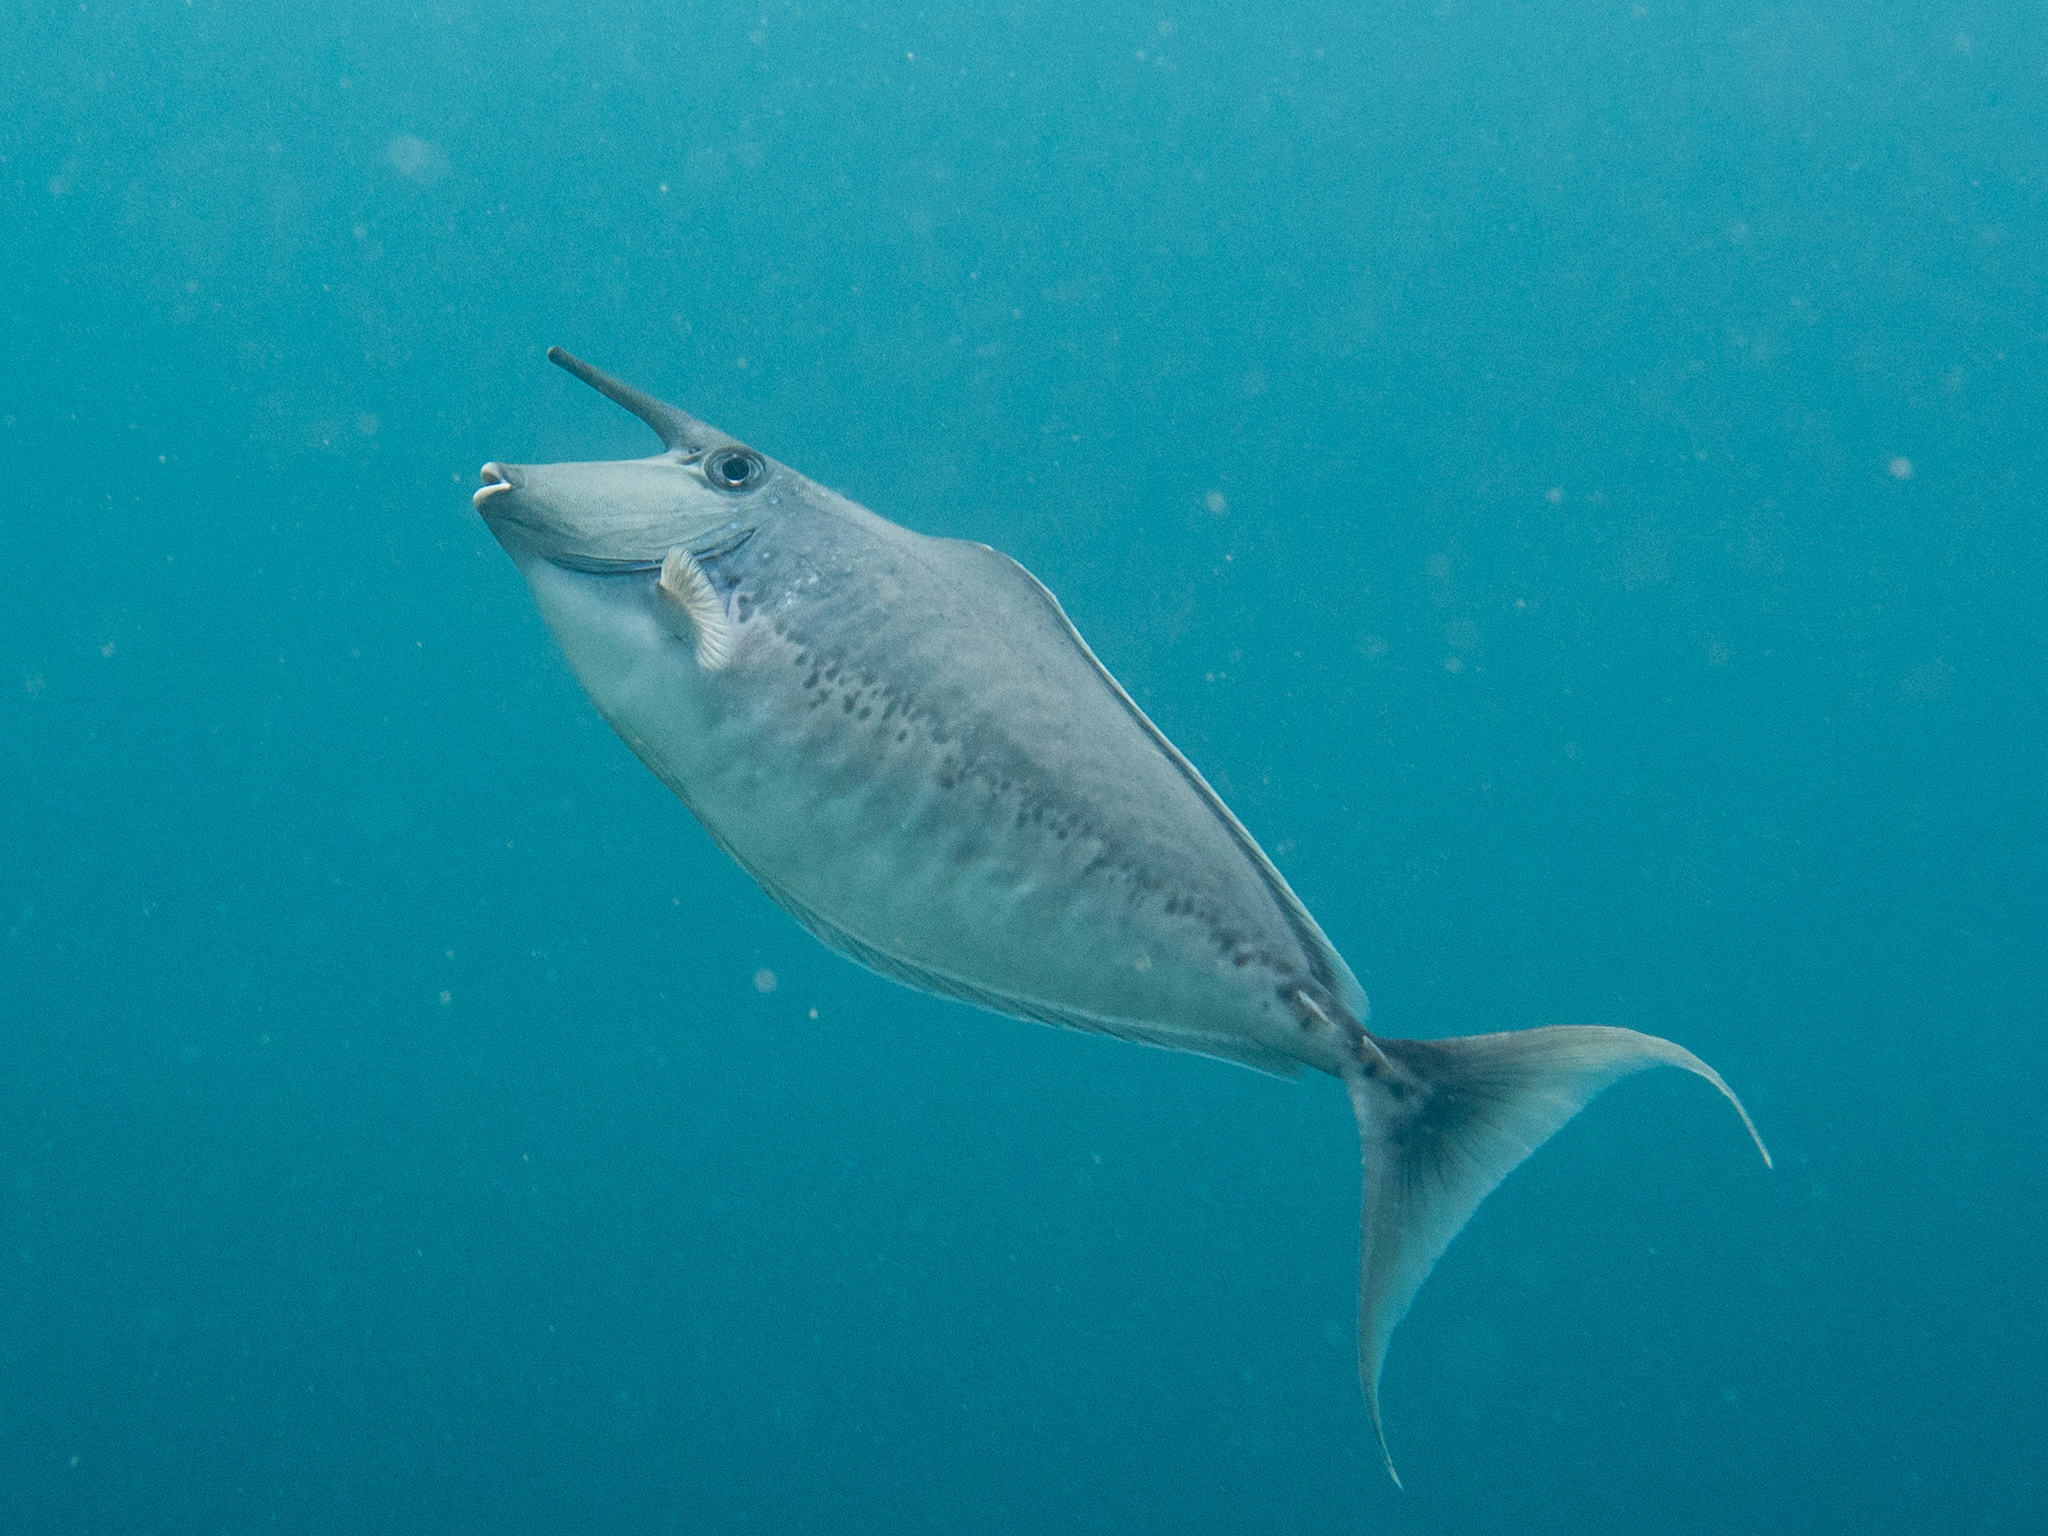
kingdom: Animalia
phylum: Chordata
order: Perciformes
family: Acanthuridae
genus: Naso
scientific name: Naso brachycentron
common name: Humpback unicornfish
